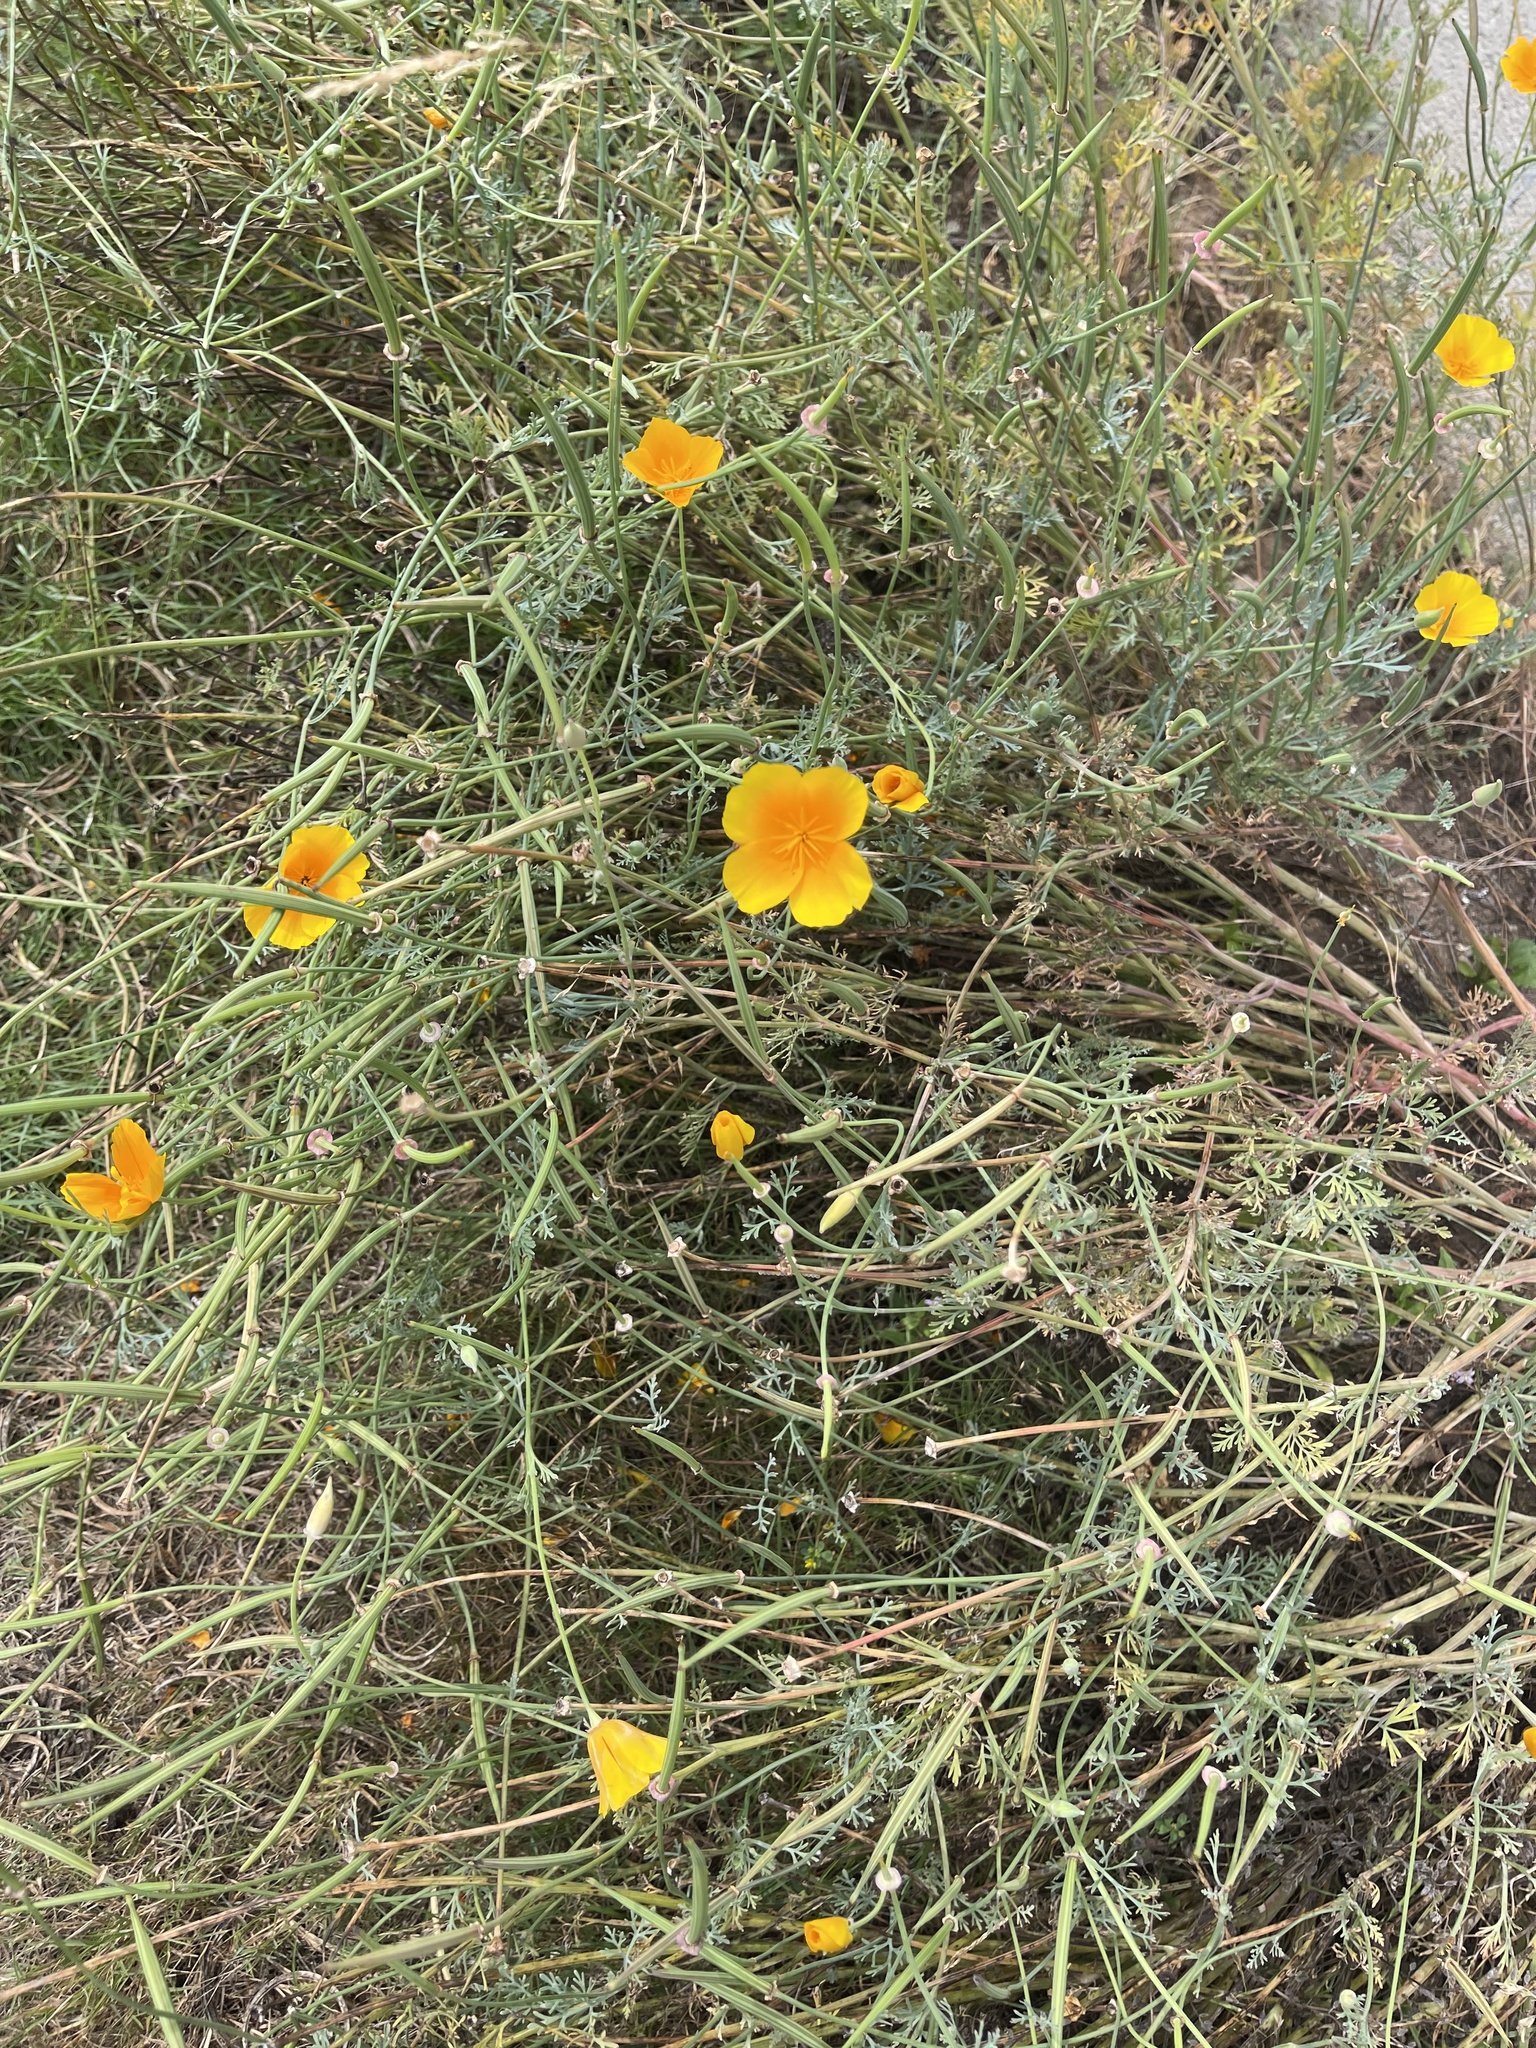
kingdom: Plantae
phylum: Tracheophyta
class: Magnoliopsida
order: Ranunculales
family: Papaveraceae
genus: Eschscholzia
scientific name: Eschscholzia californica
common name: California poppy
